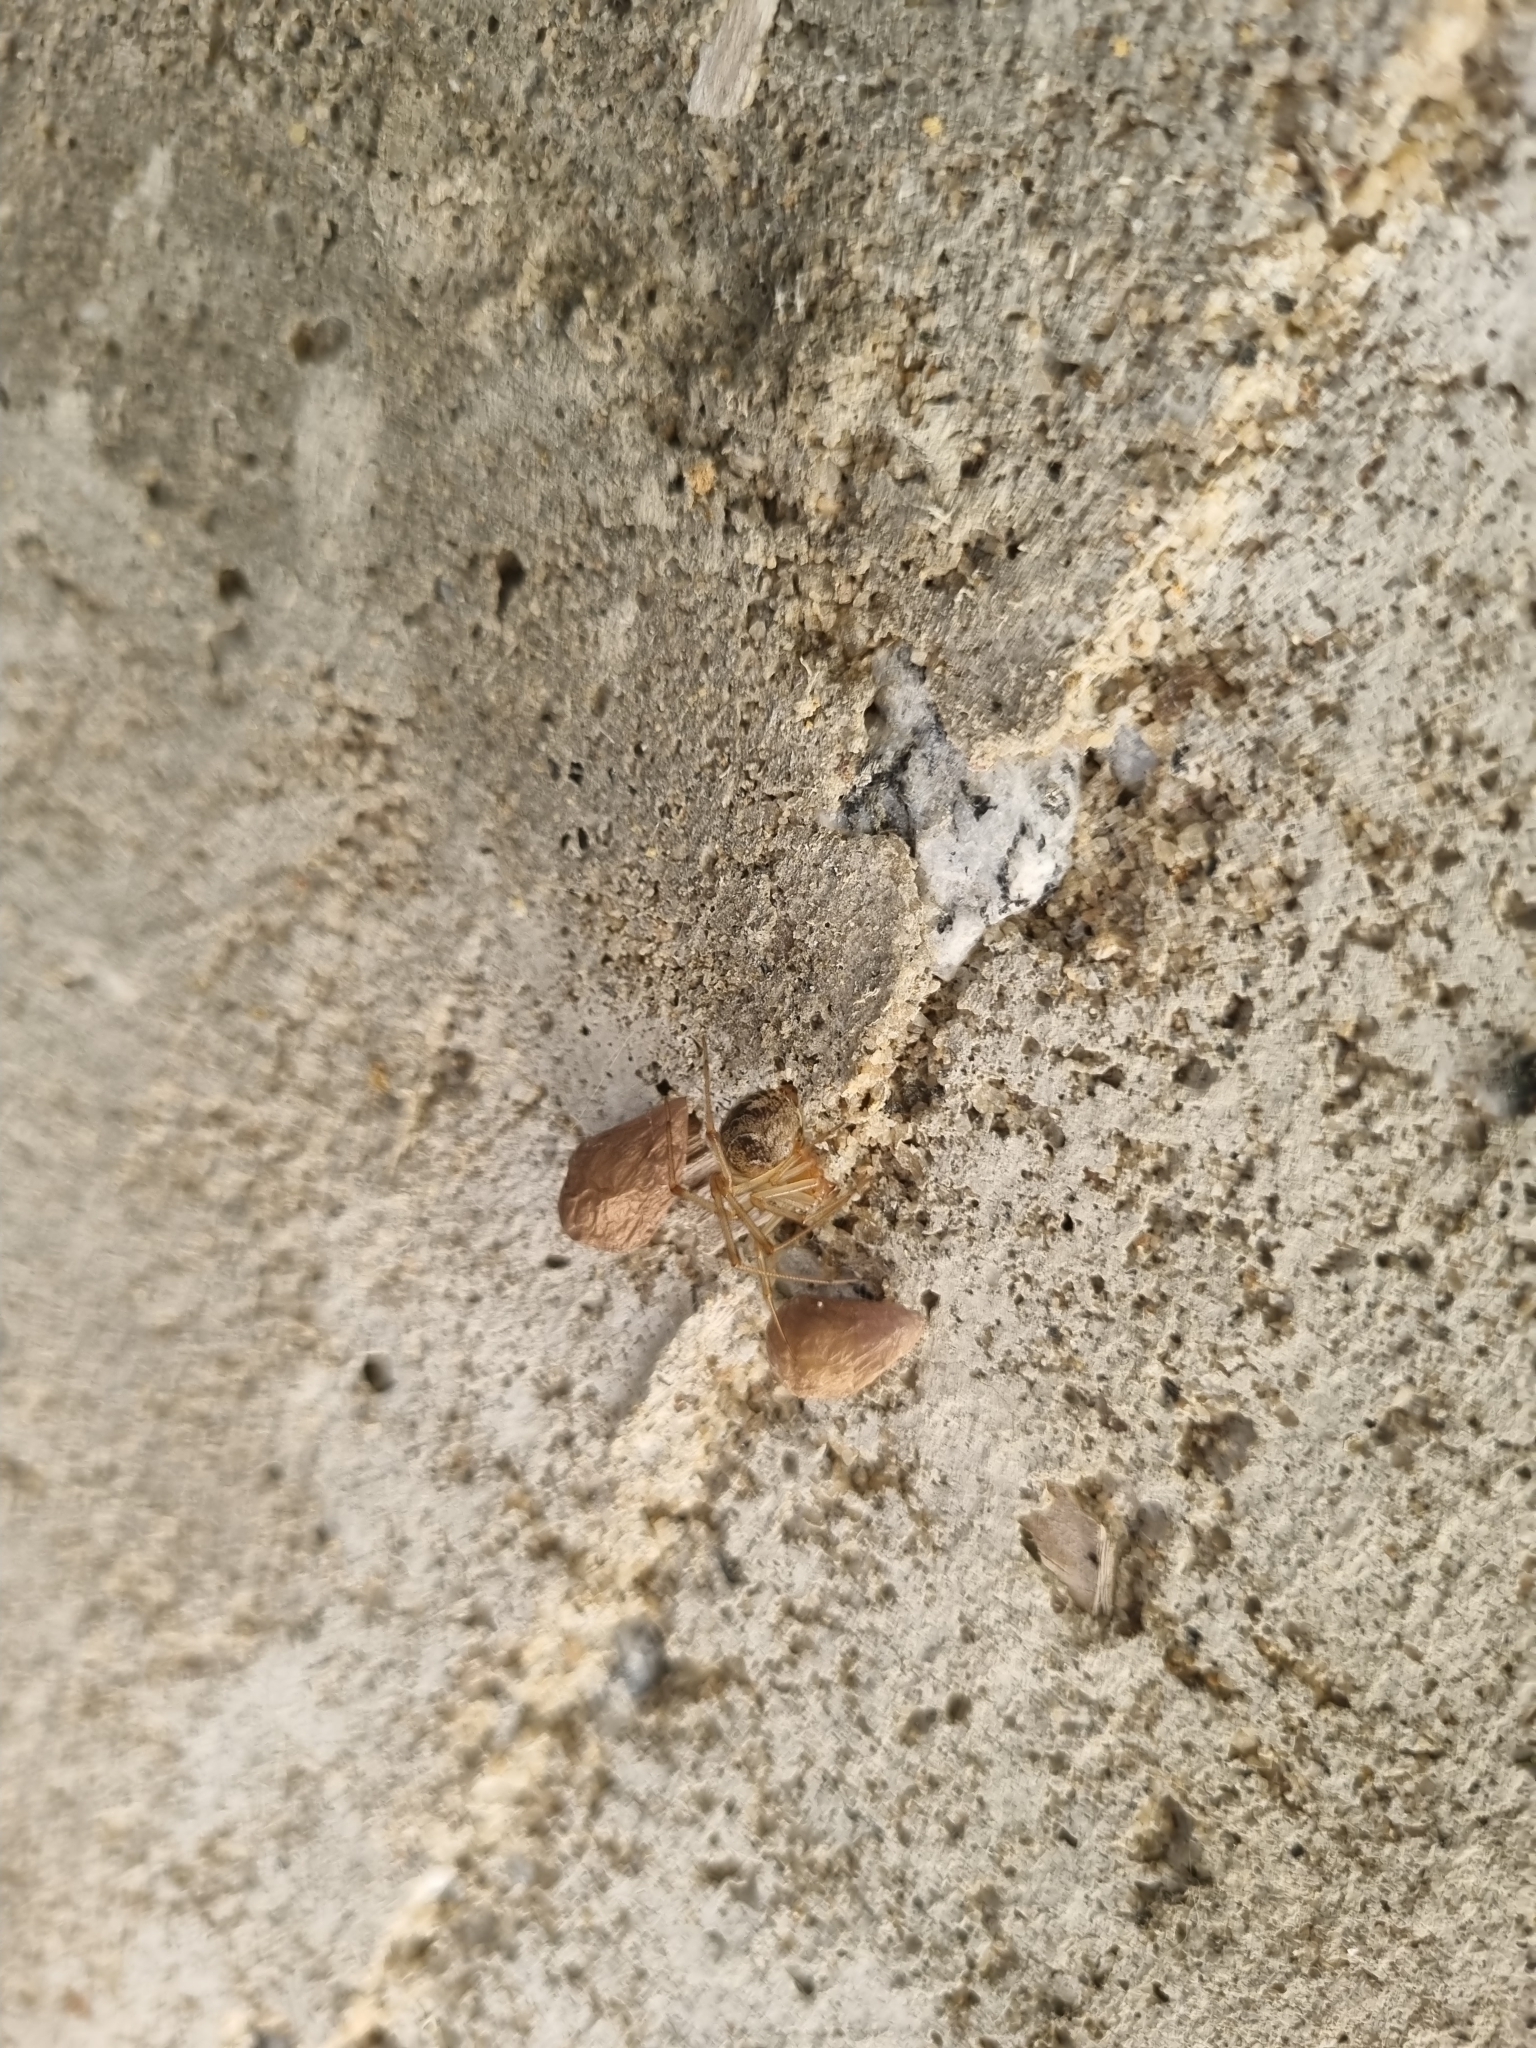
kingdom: Animalia
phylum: Arthropoda
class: Arachnida
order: Araneae
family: Theridiidae
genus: Parasteatoda
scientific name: Parasteatoda tepidariorum
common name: Common house spider
